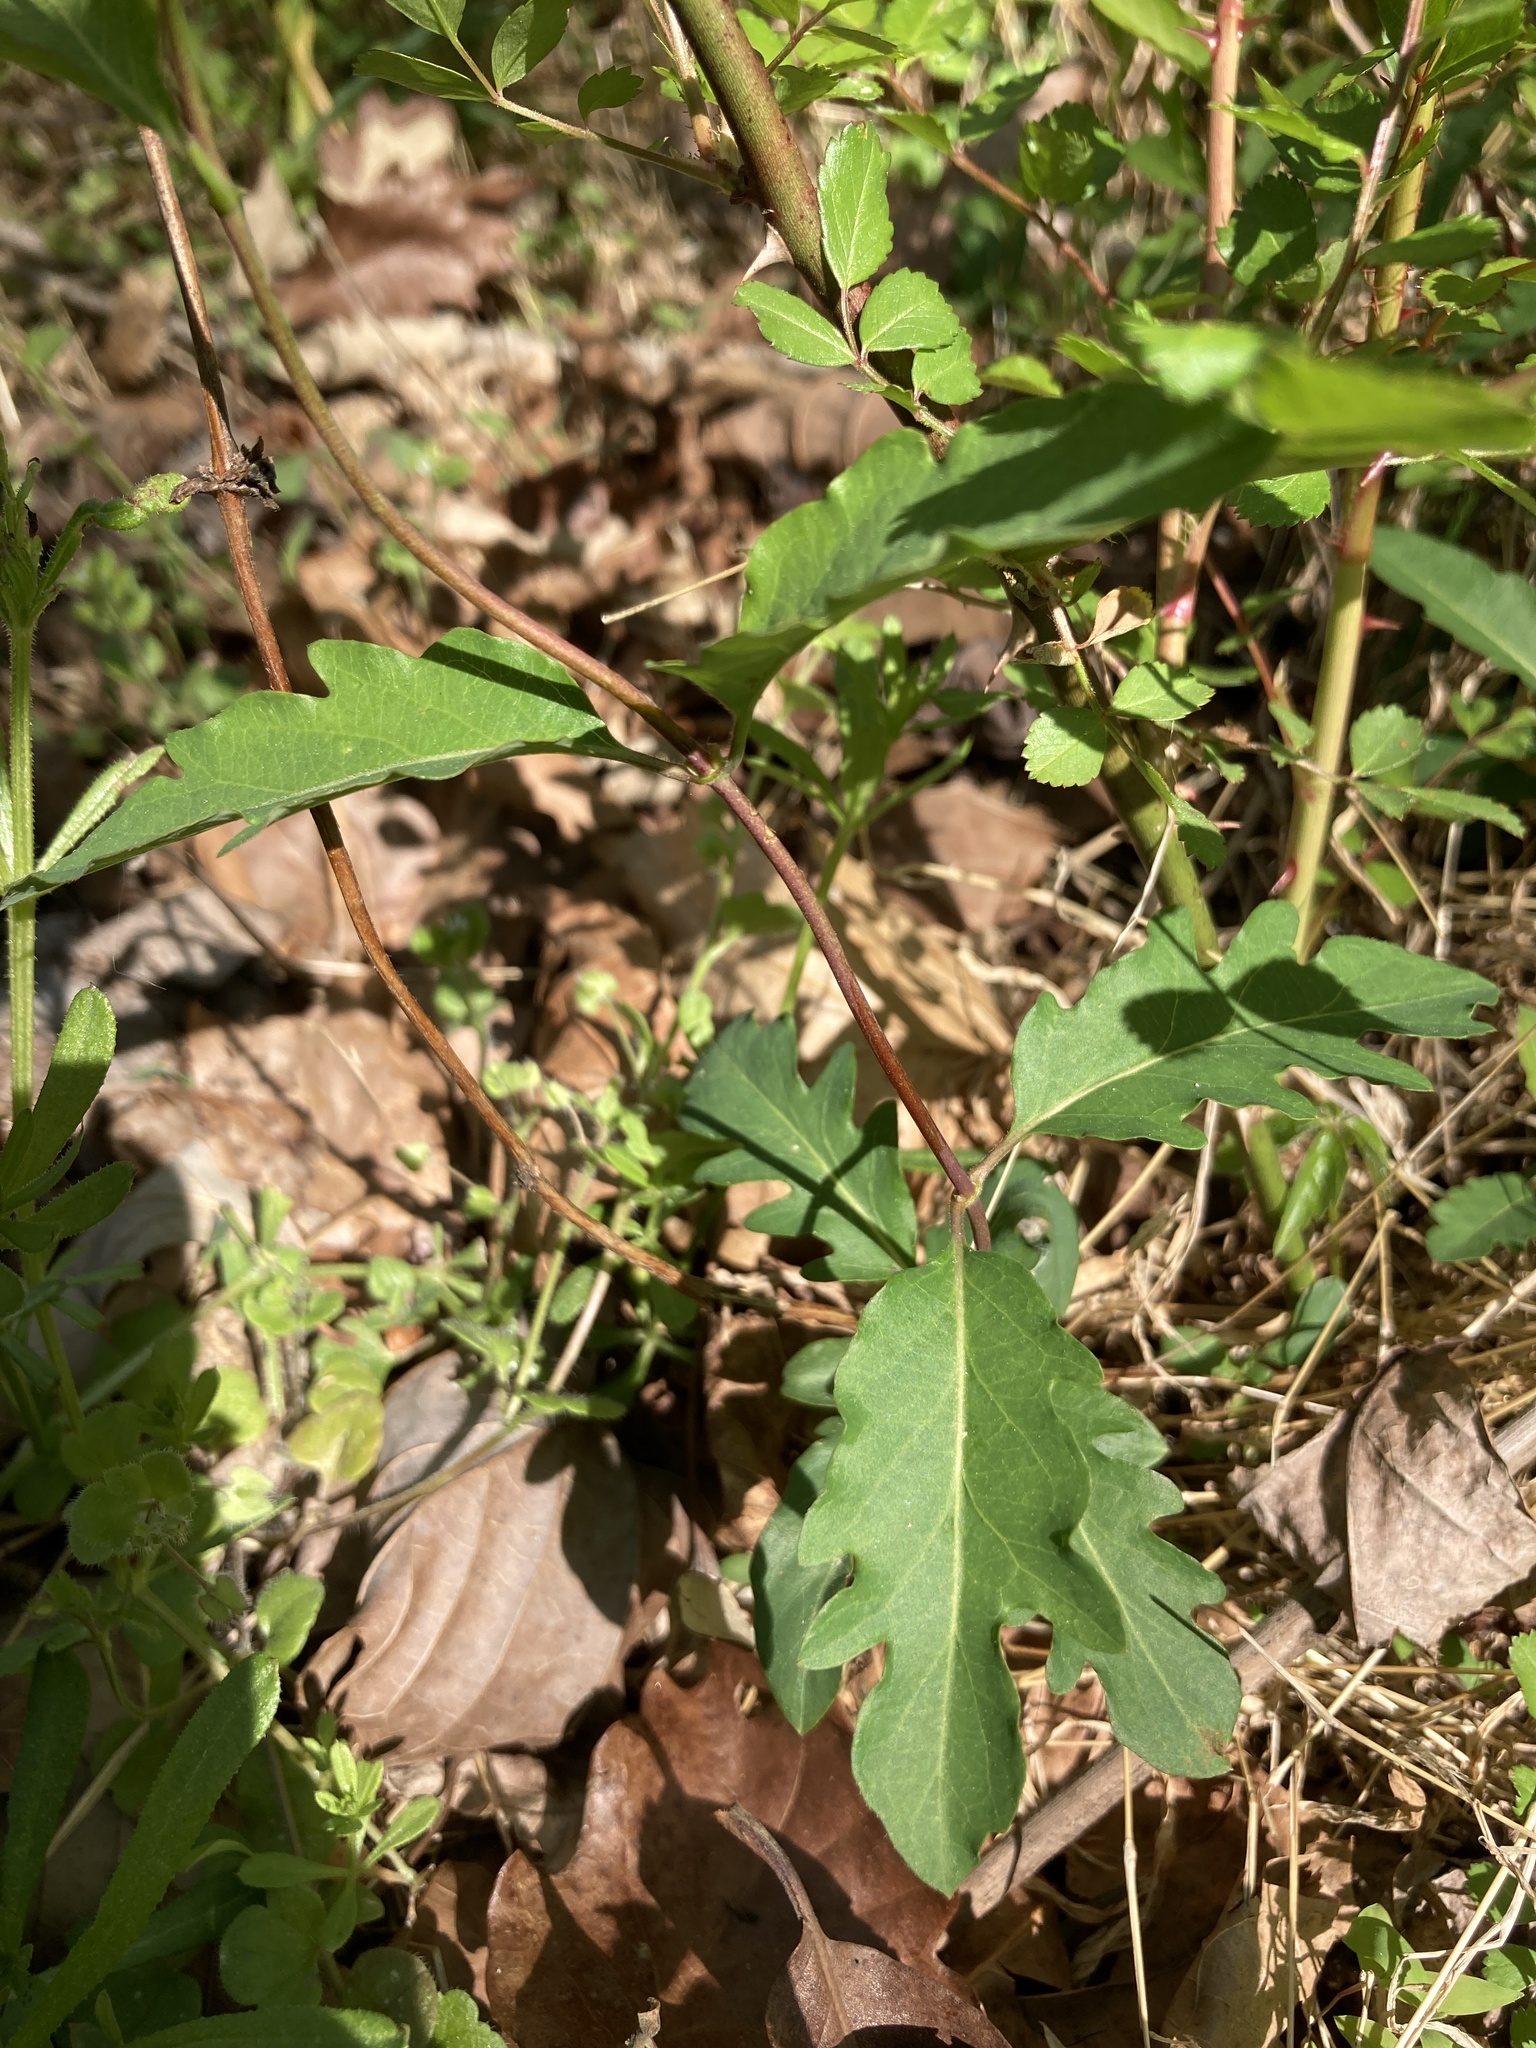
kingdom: Plantae
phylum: Tracheophyta
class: Magnoliopsida
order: Dipsacales
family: Caprifoliaceae
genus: Lonicera
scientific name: Lonicera japonica
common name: Japanese honeysuckle
